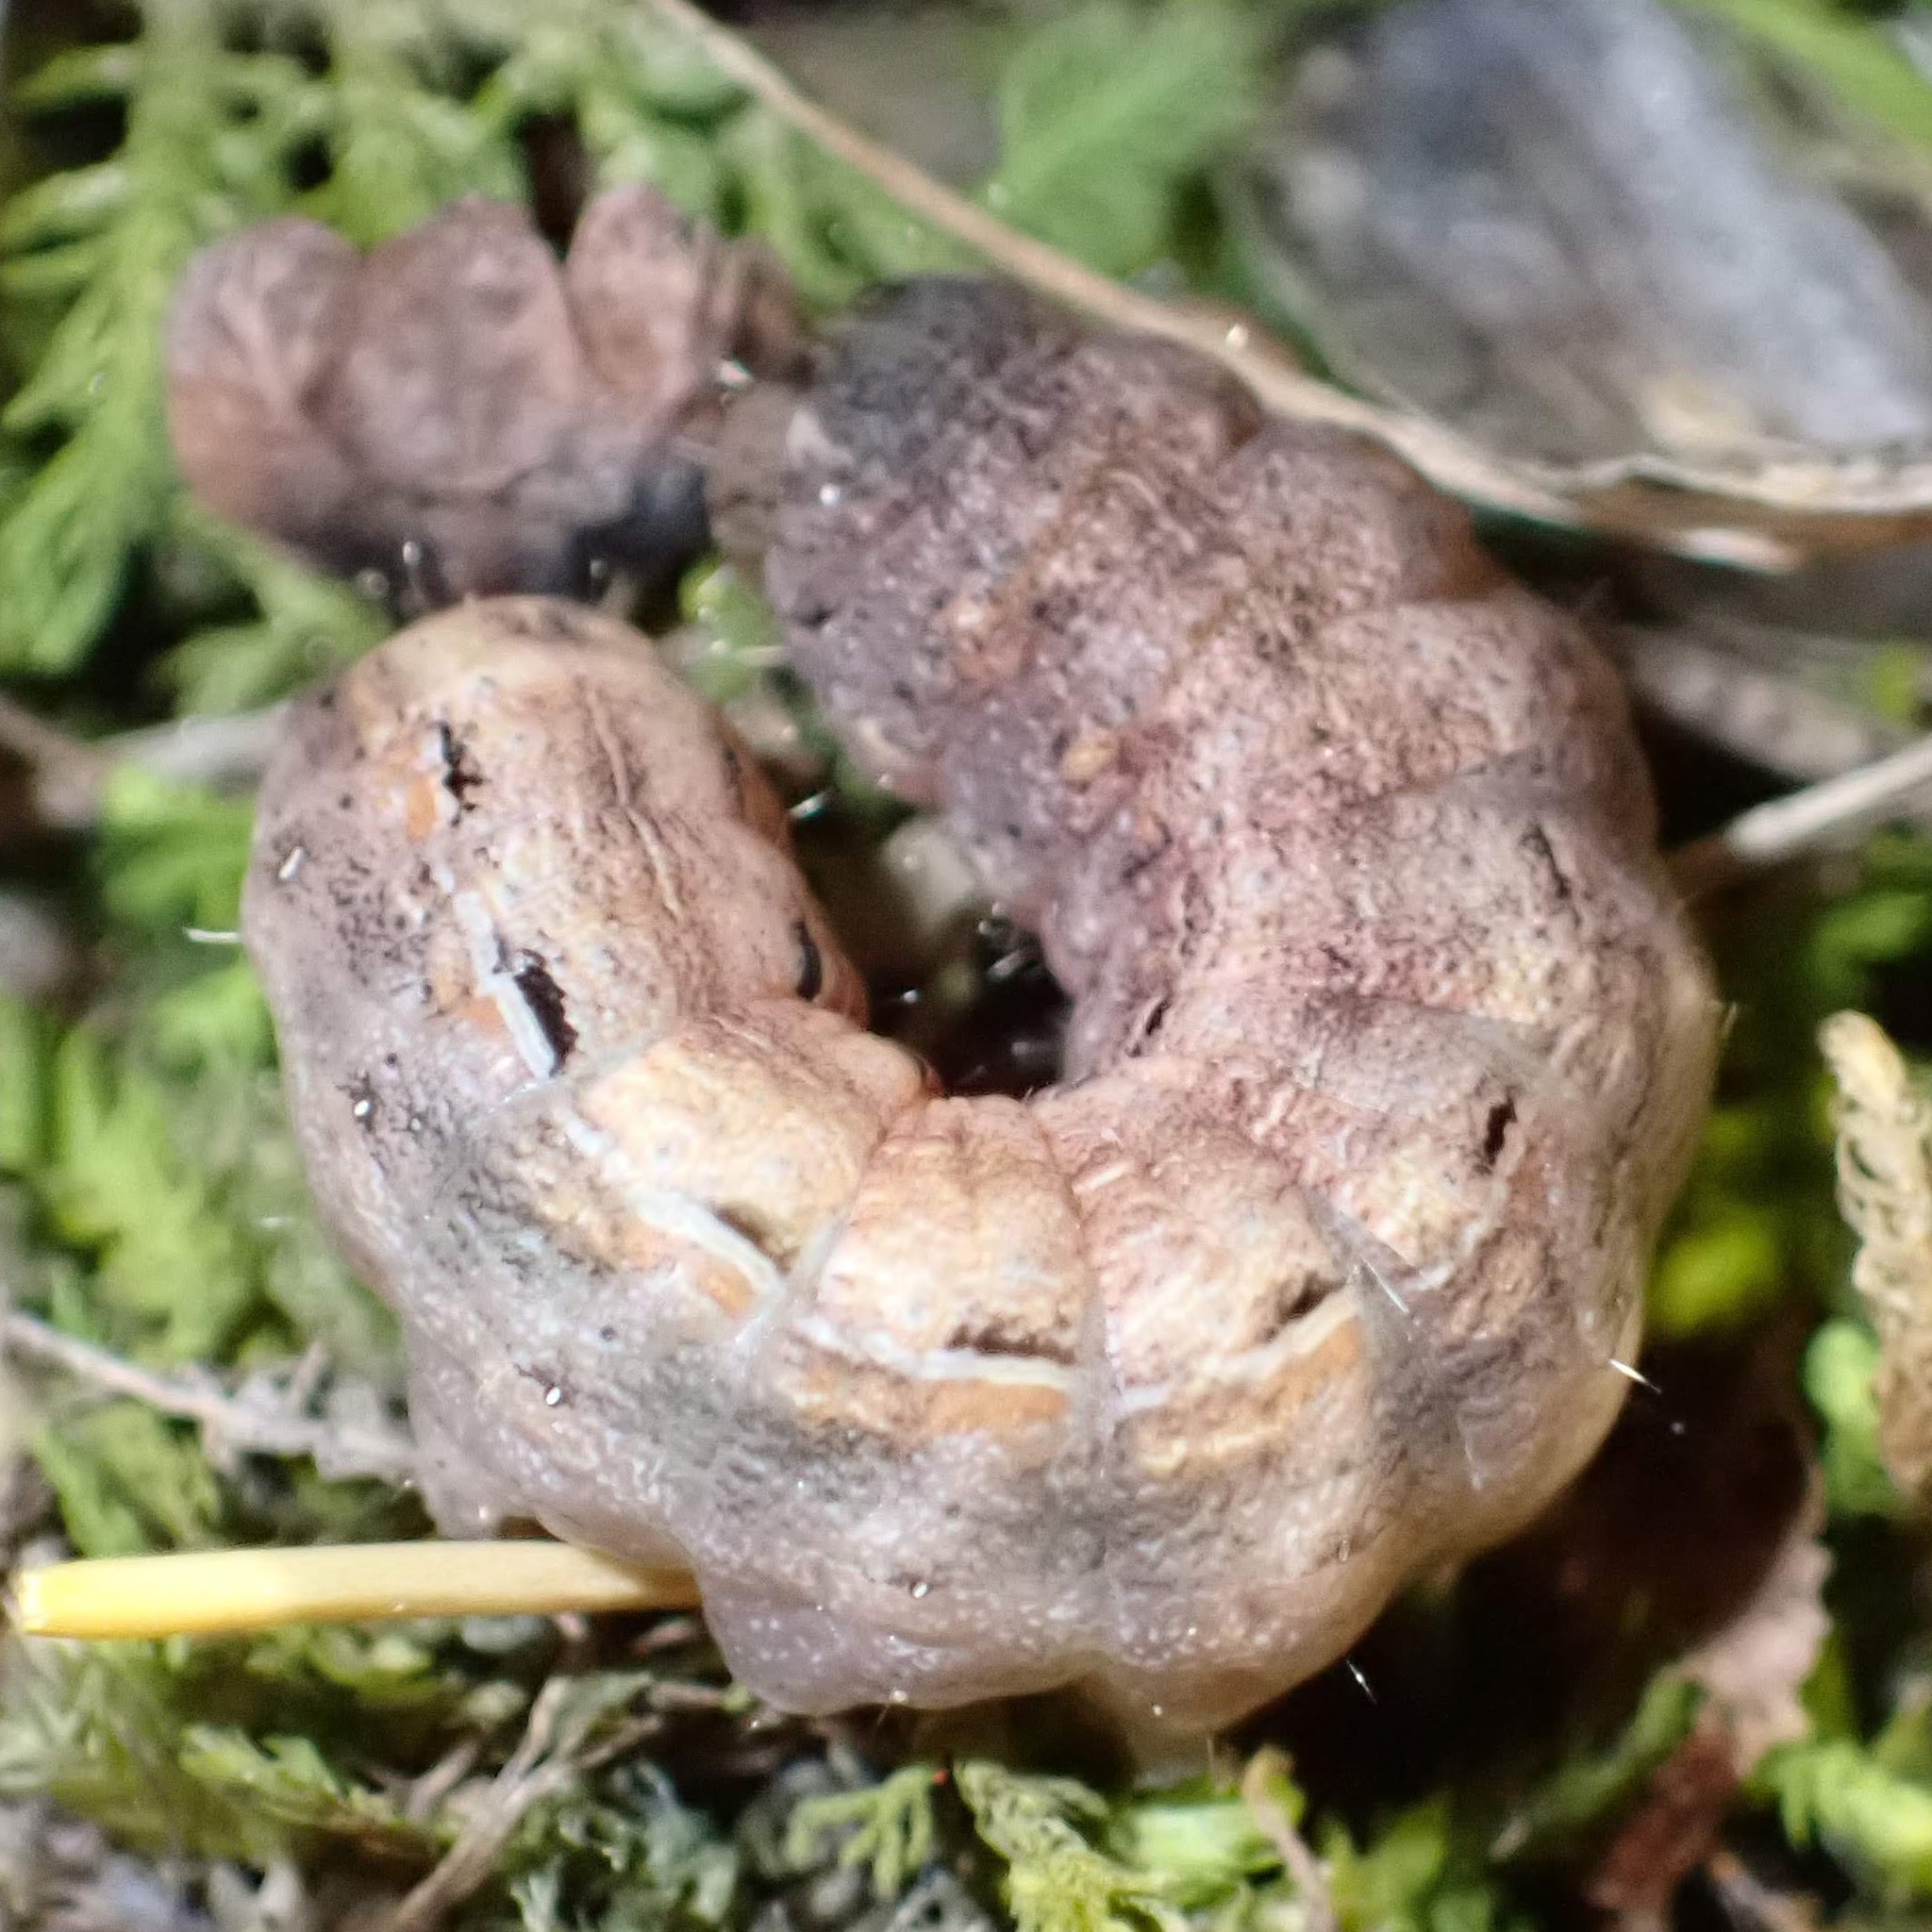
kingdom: Animalia
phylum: Arthropoda
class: Insecta
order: Lepidoptera
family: Noctuidae
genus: Noctua
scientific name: Noctua pronuba
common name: Large yellow underwing
